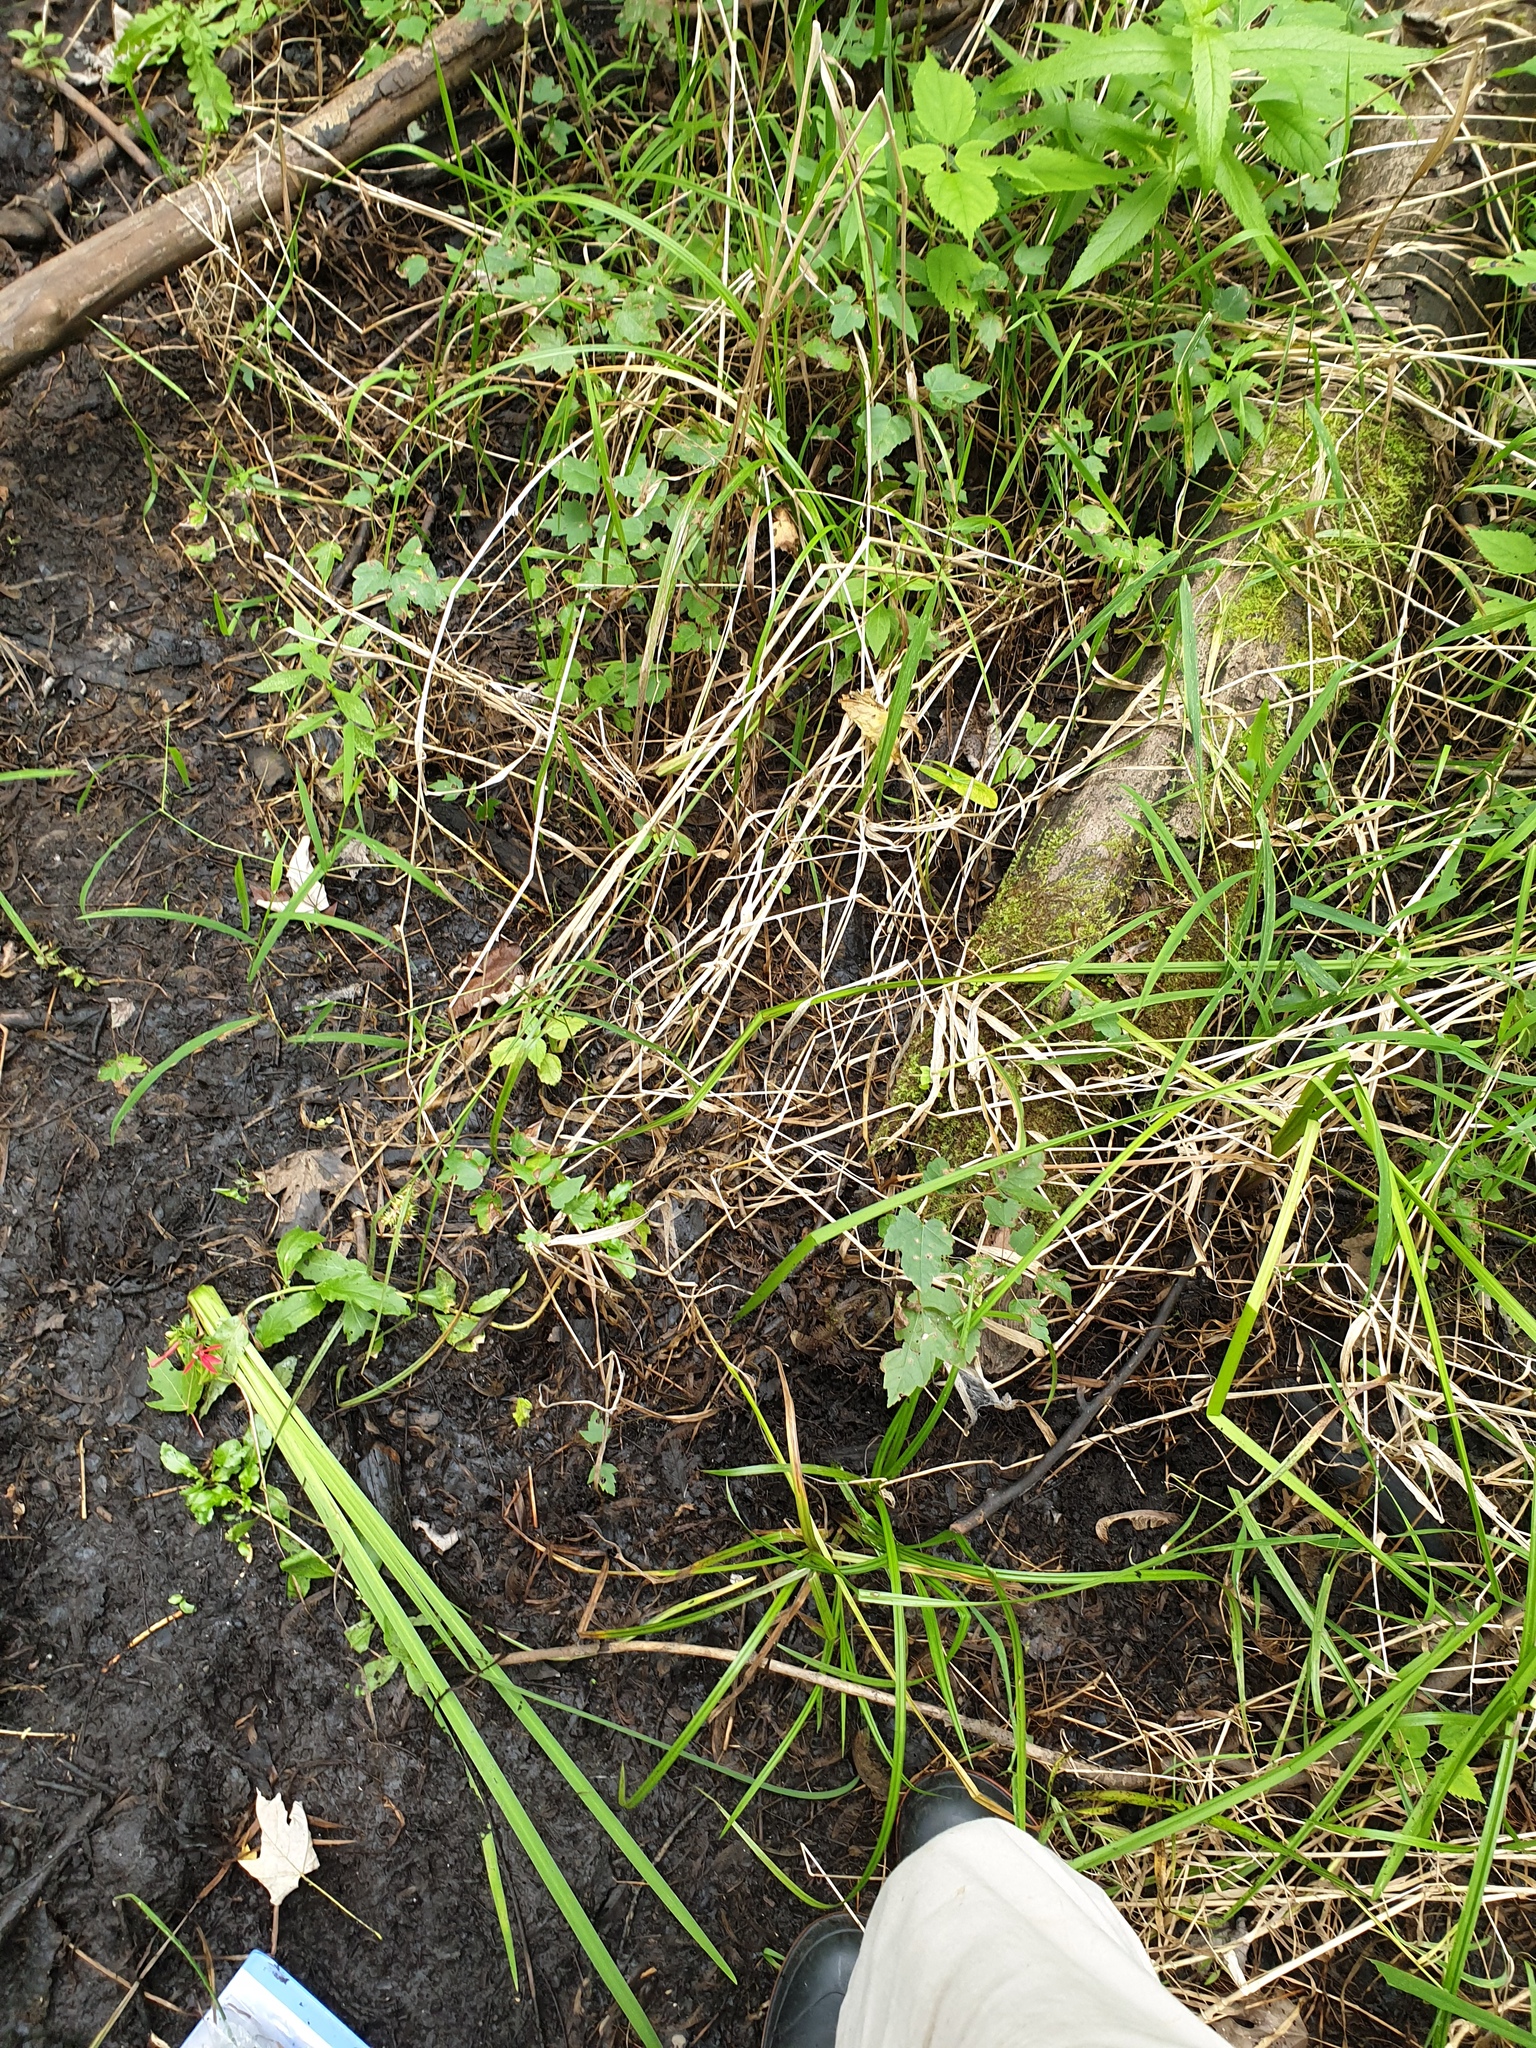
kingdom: Plantae
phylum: Tracheophyta
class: Liliopsida
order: Poales
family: Cyperaceae
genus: Carex
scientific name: Carex lupulina
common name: Hop sedge
